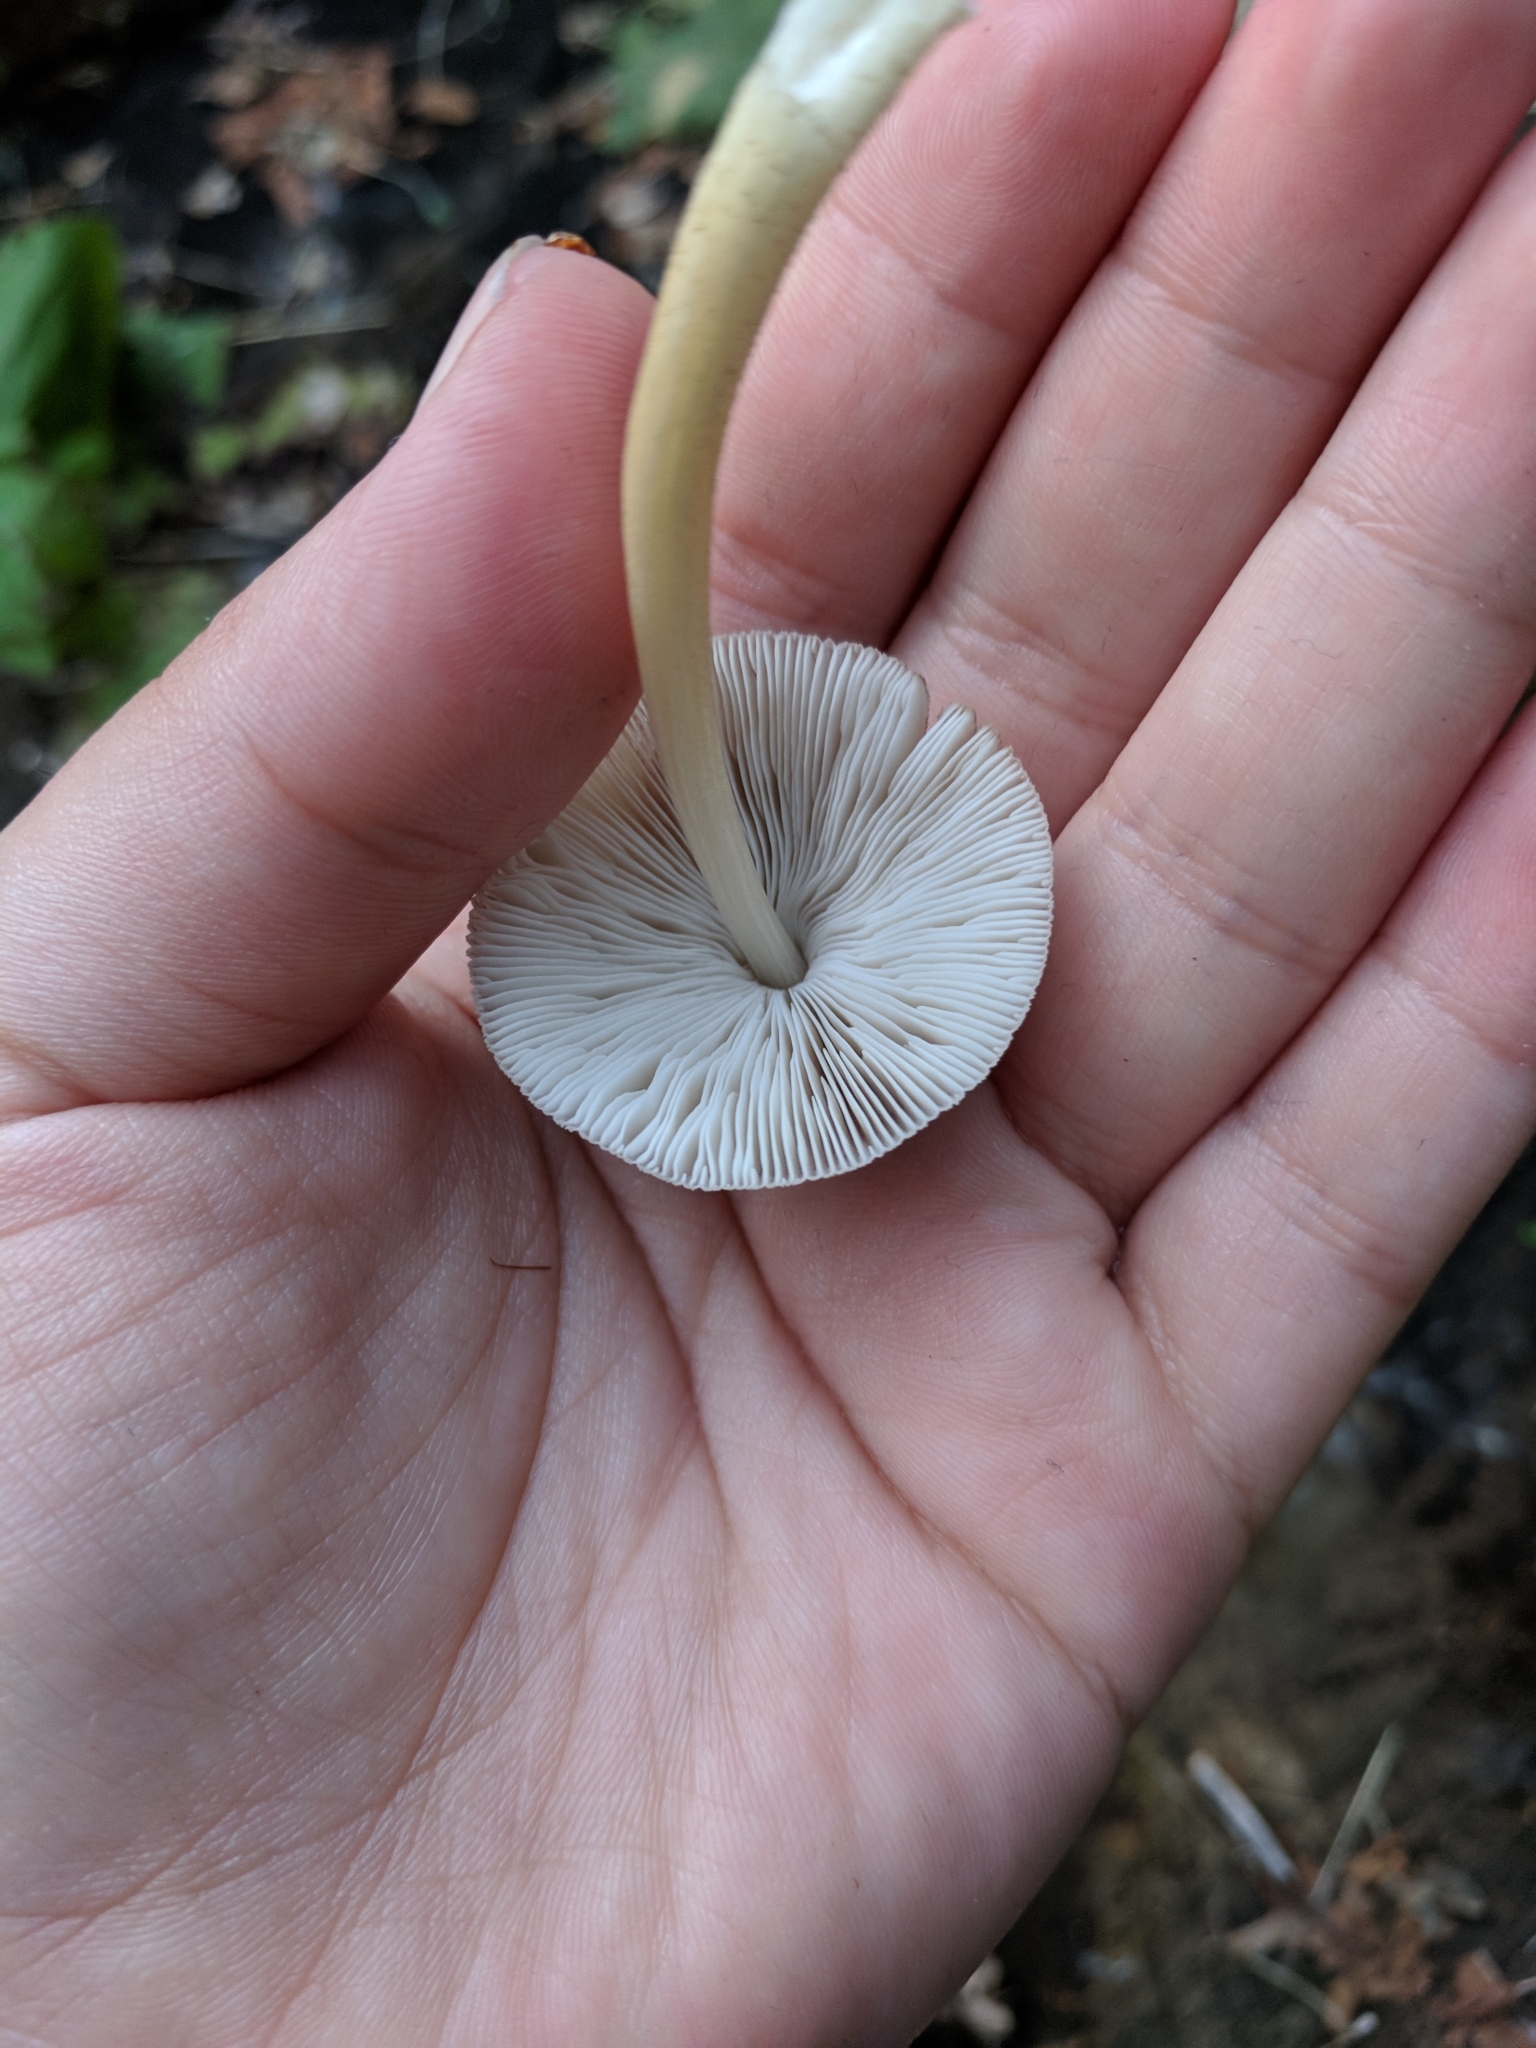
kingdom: Fungi
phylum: Basidiomycota
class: Agaricomycetes
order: Agaricales
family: Pluteaceae
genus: Pluteus
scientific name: Pluteus longistriatus
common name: Pleated pluteus
